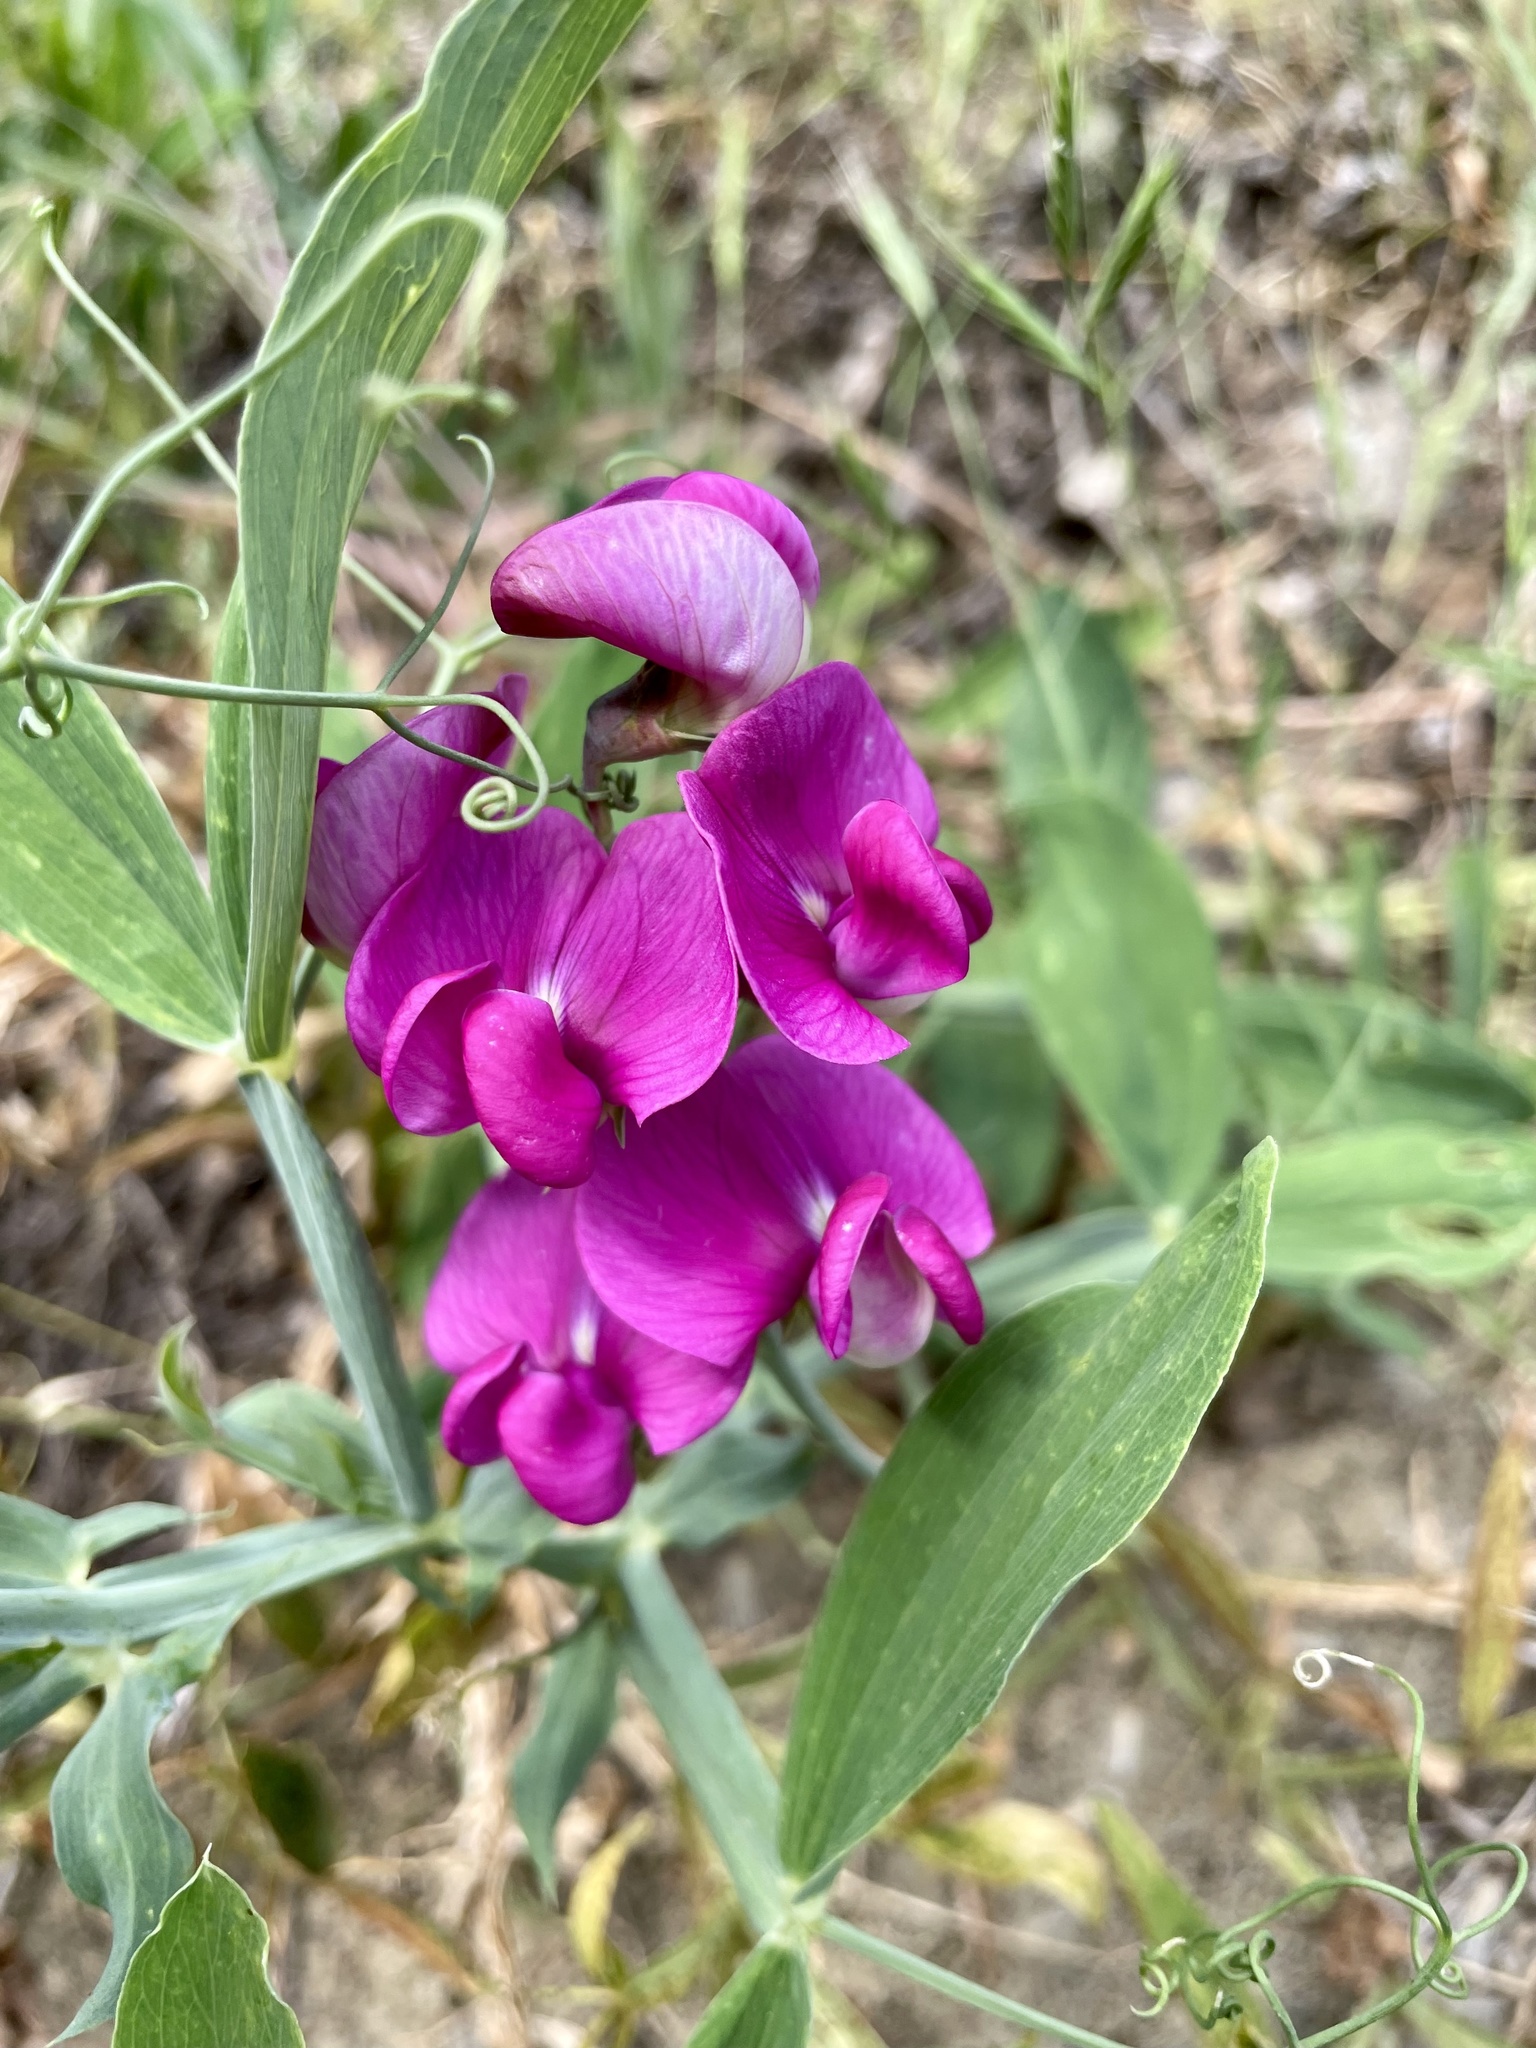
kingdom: Plantae
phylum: Tracheophyta
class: Magnoliopsida
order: Fabales
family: Fabaceae
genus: Lathyrus
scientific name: Lathyrus latifolius
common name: Perennial pea
